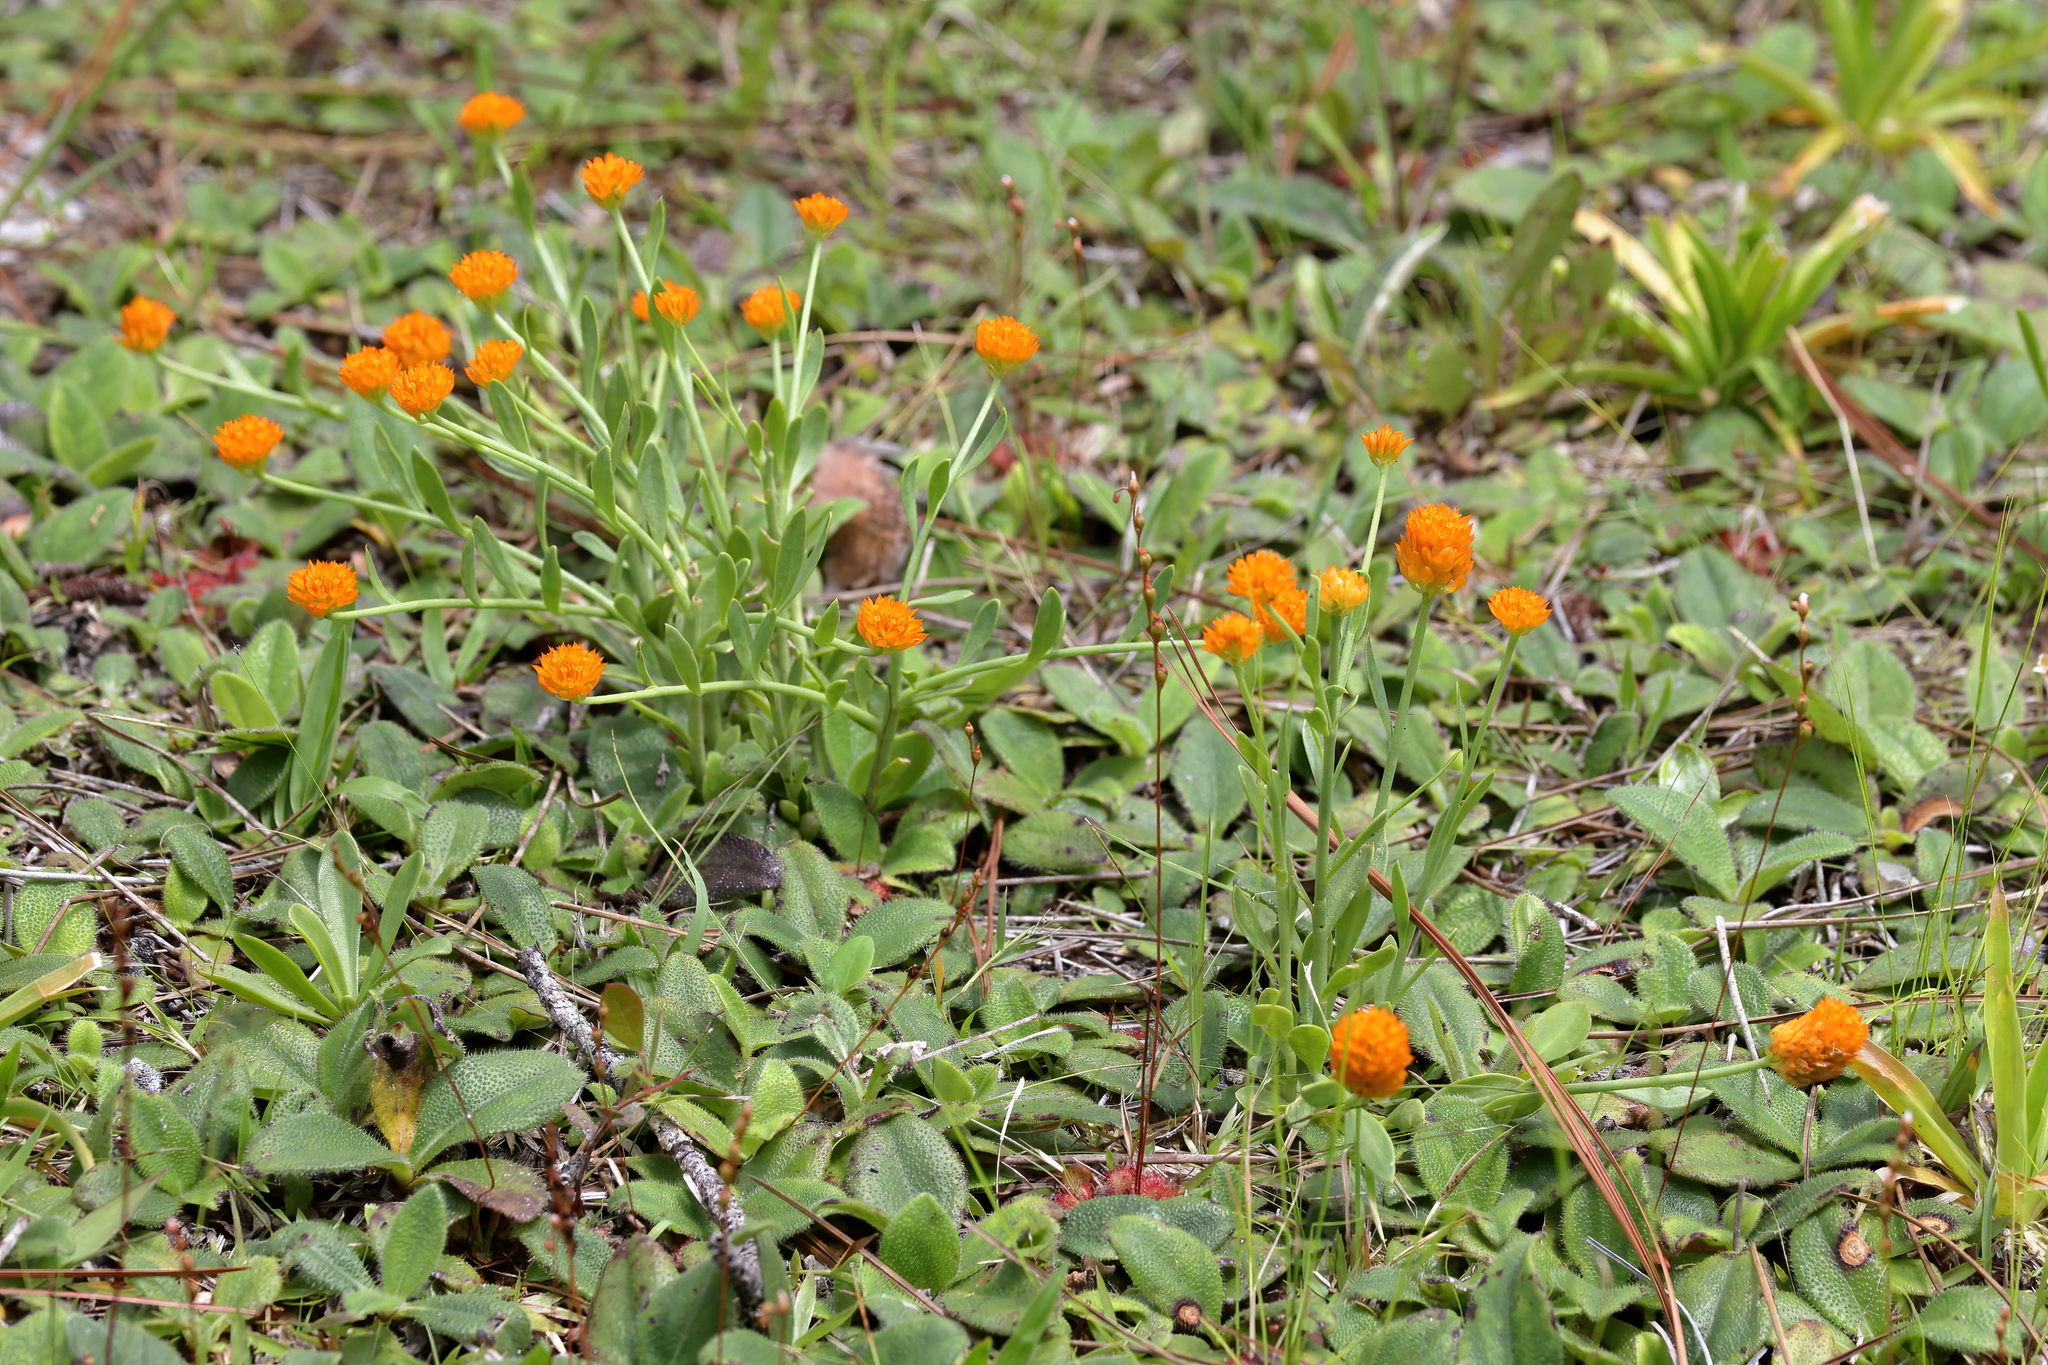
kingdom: Plantae
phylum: Tracheophyta
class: Magnoliopsida
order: Fabales
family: Polygalaceae
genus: Polygala
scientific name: Polygala lutea
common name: Orange milkwort
